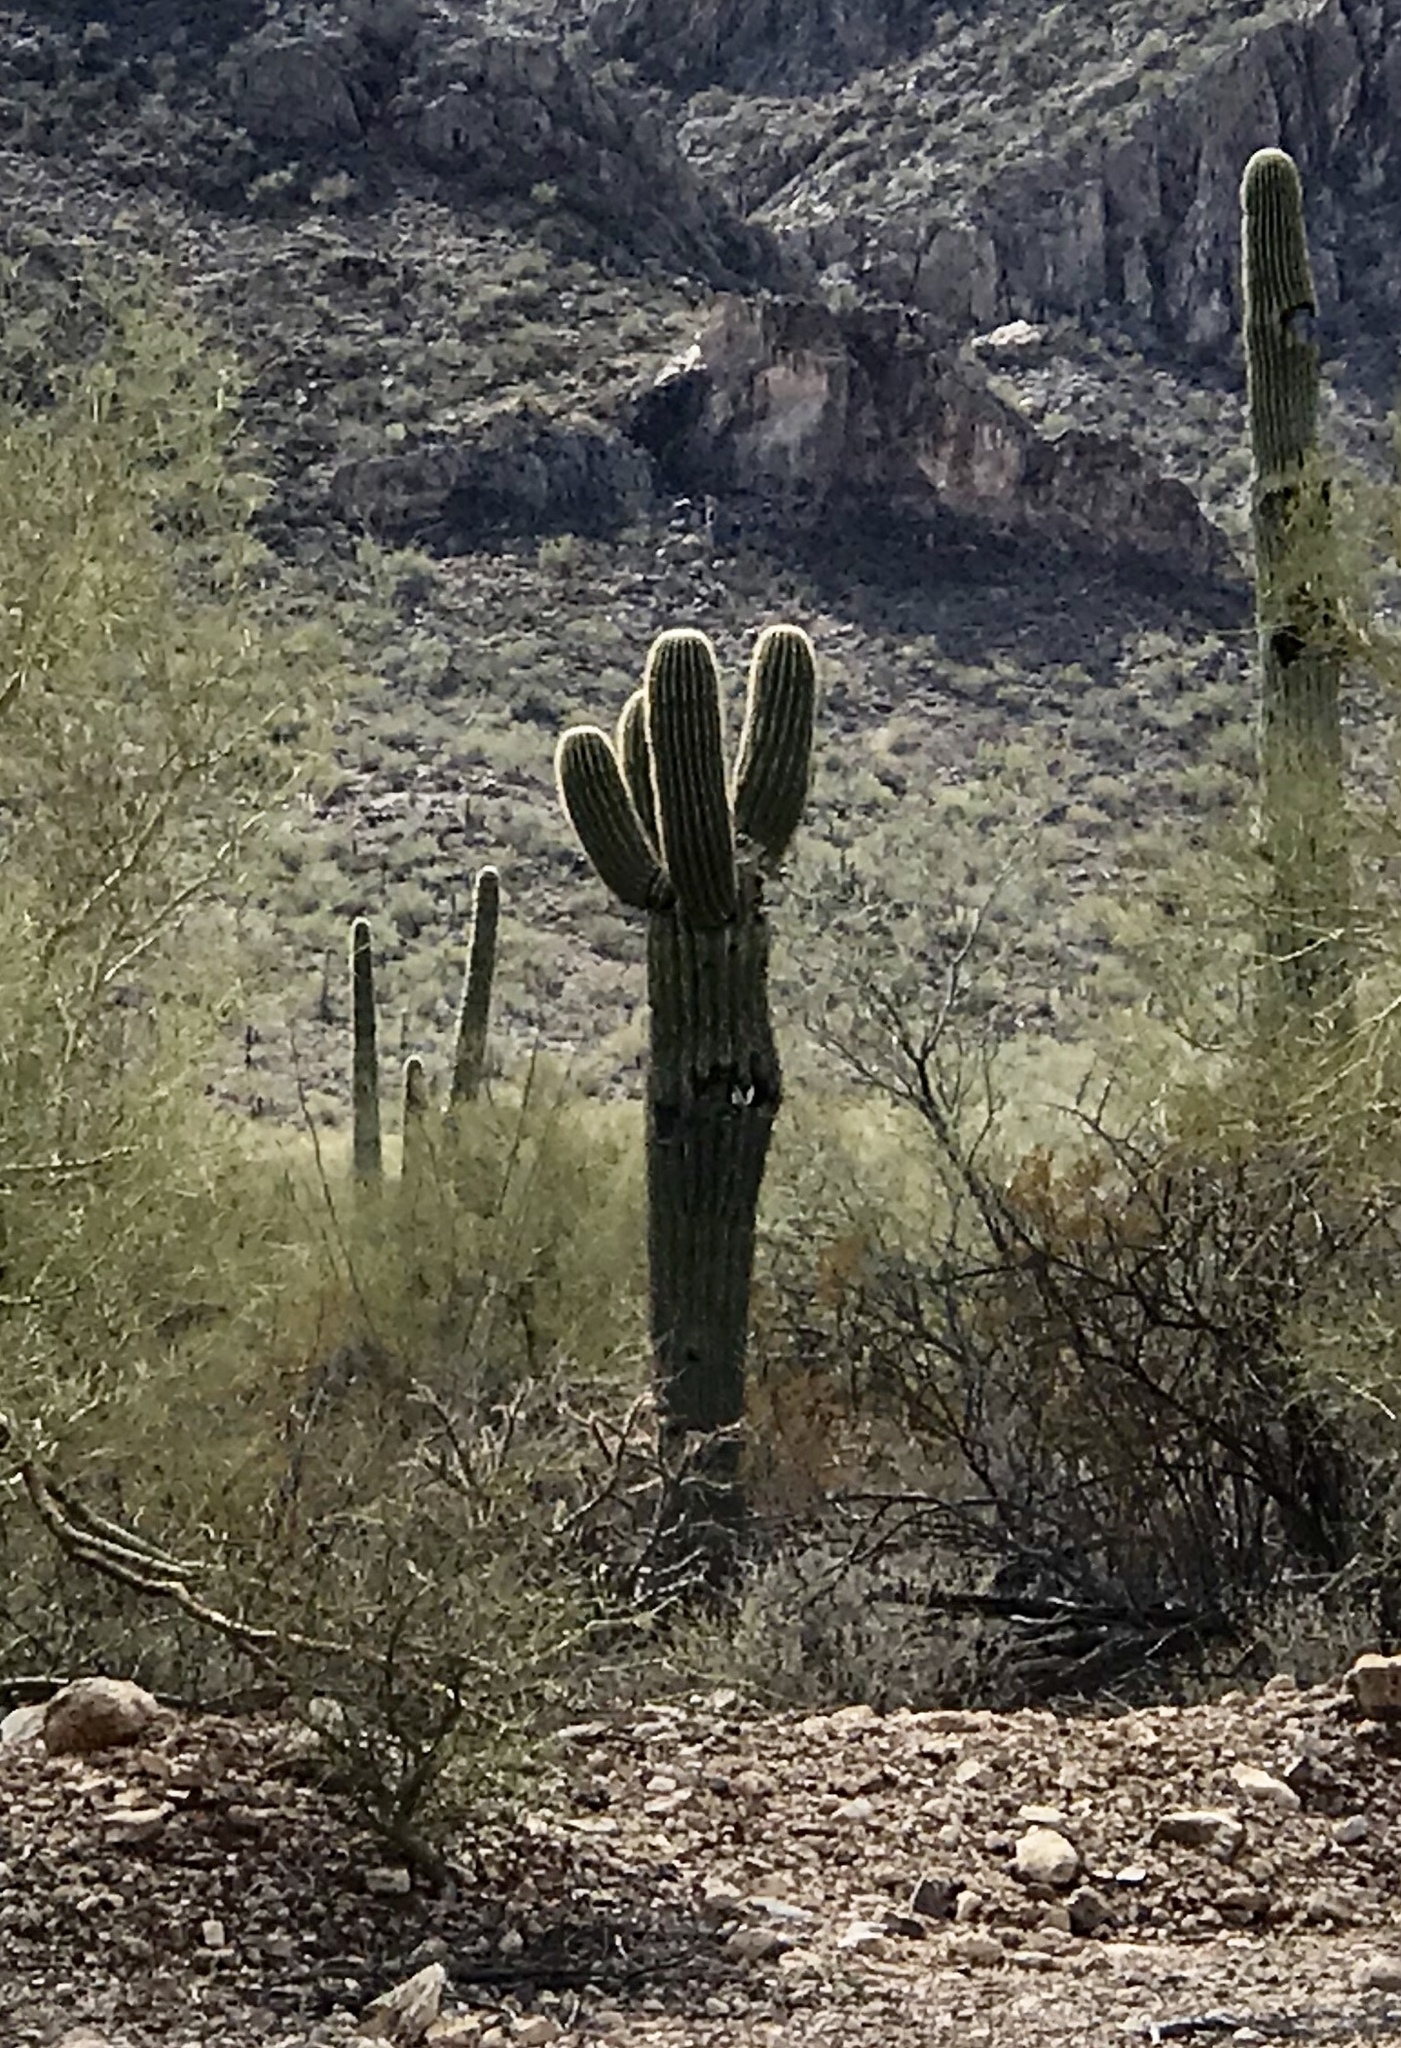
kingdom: Plantae
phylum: Tracheophyta
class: Magnoliopsida
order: Caryophyllales
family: Cactaceae
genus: Carnegiea
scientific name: Carnegiea gigantea
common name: Saguaro
